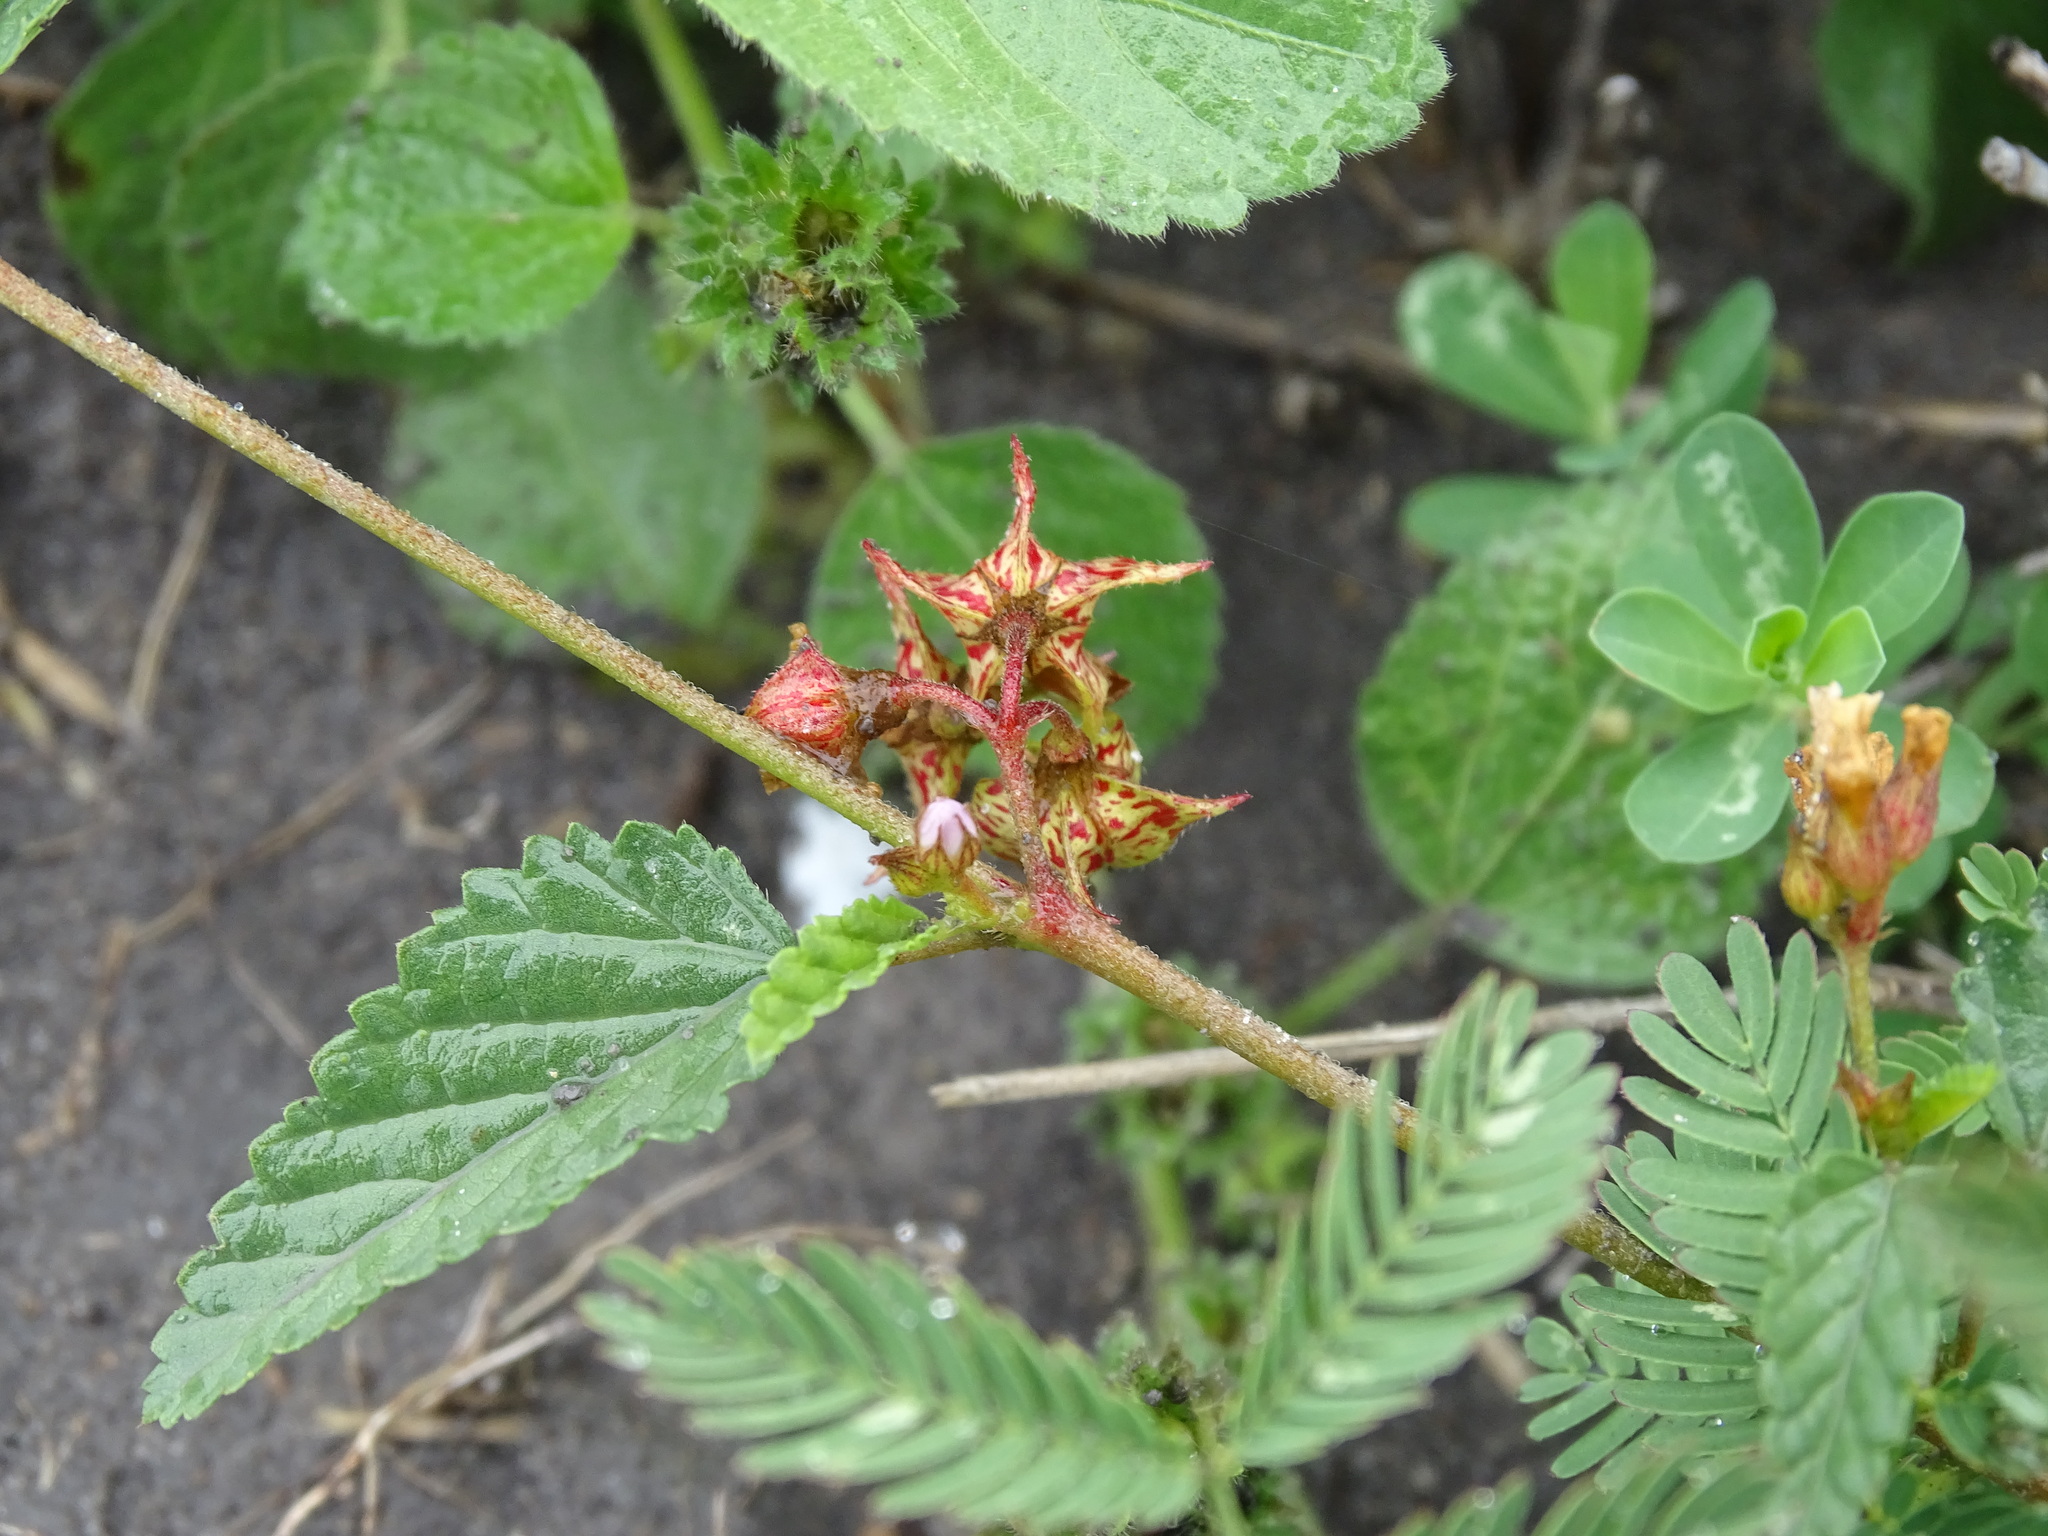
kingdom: Plantae
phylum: Tracheophyta
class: Magnoliopsida
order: Malvales
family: Malvaceae
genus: Melochia
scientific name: Melochia pyramidata
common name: Pyramidflower
